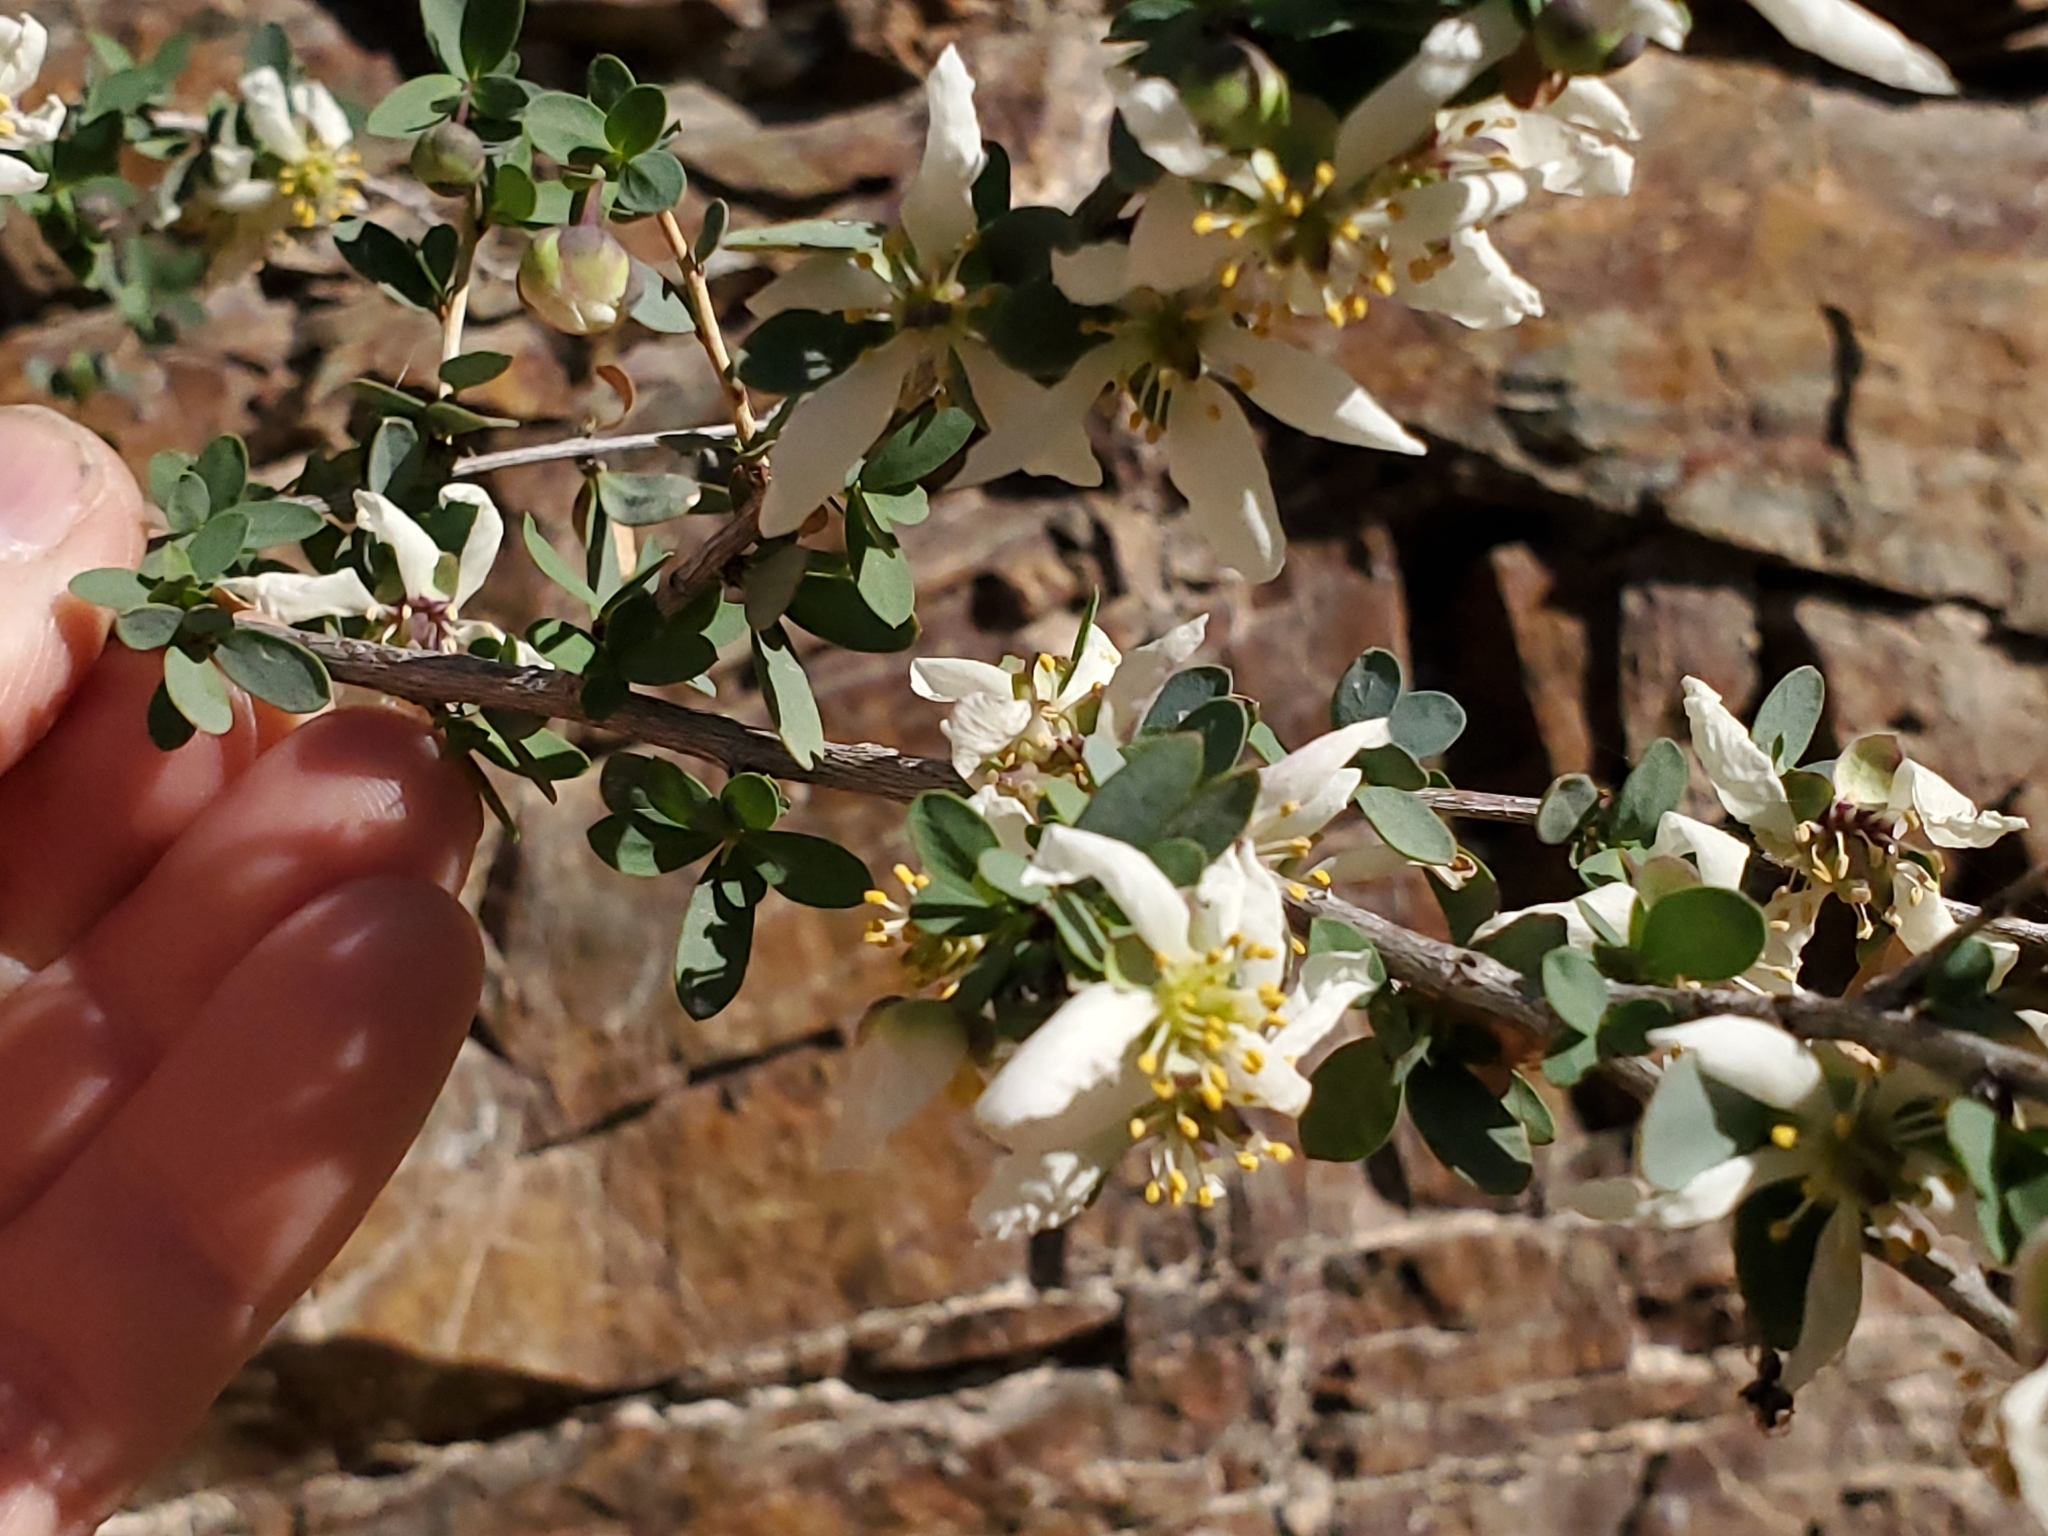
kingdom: Plantae
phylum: Tracheophyta
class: Magnoliopsida
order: Crossosomatales
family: Crossosomataceae
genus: Crossosoma
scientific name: Crossosoma bigelovii
